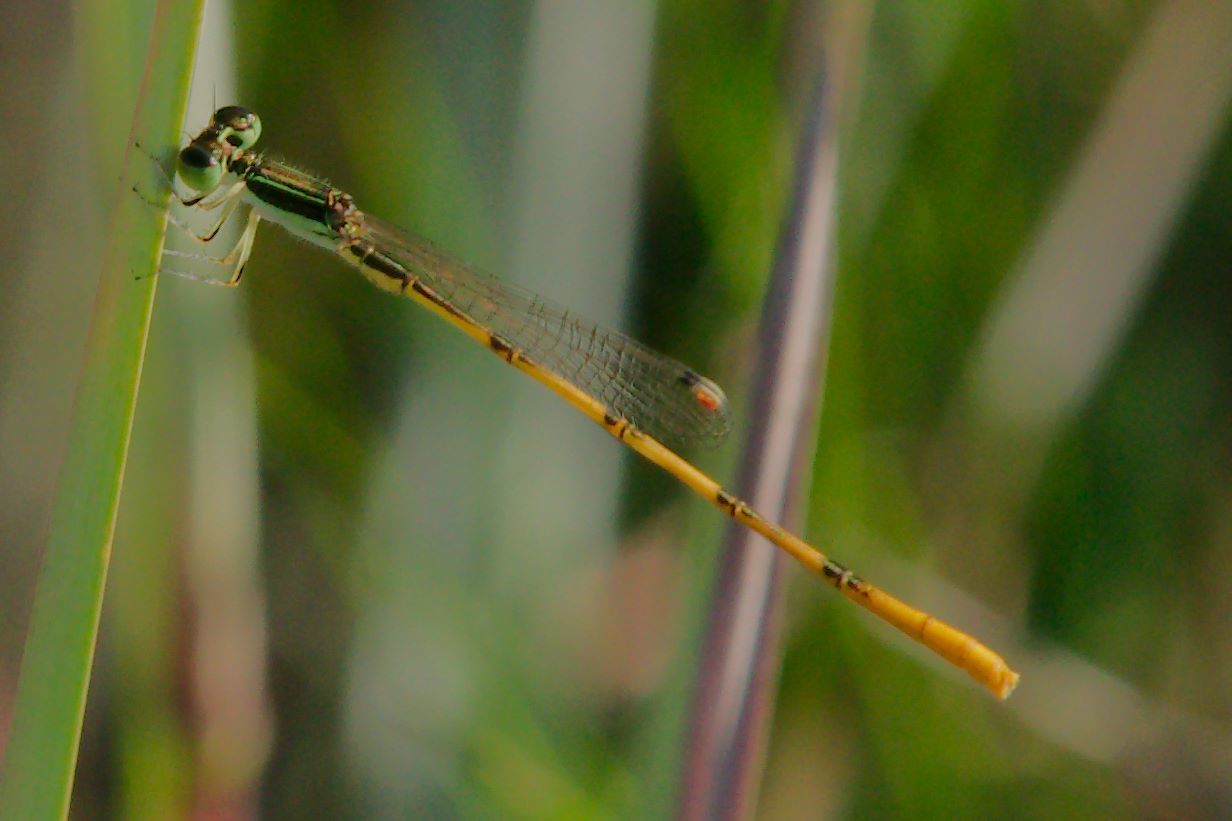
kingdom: Animalia
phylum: Arthropoda
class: Insecta
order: Odonata
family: Coenagrionidae
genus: Ischnura
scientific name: Ischnura hastata
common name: Citrine forktail
